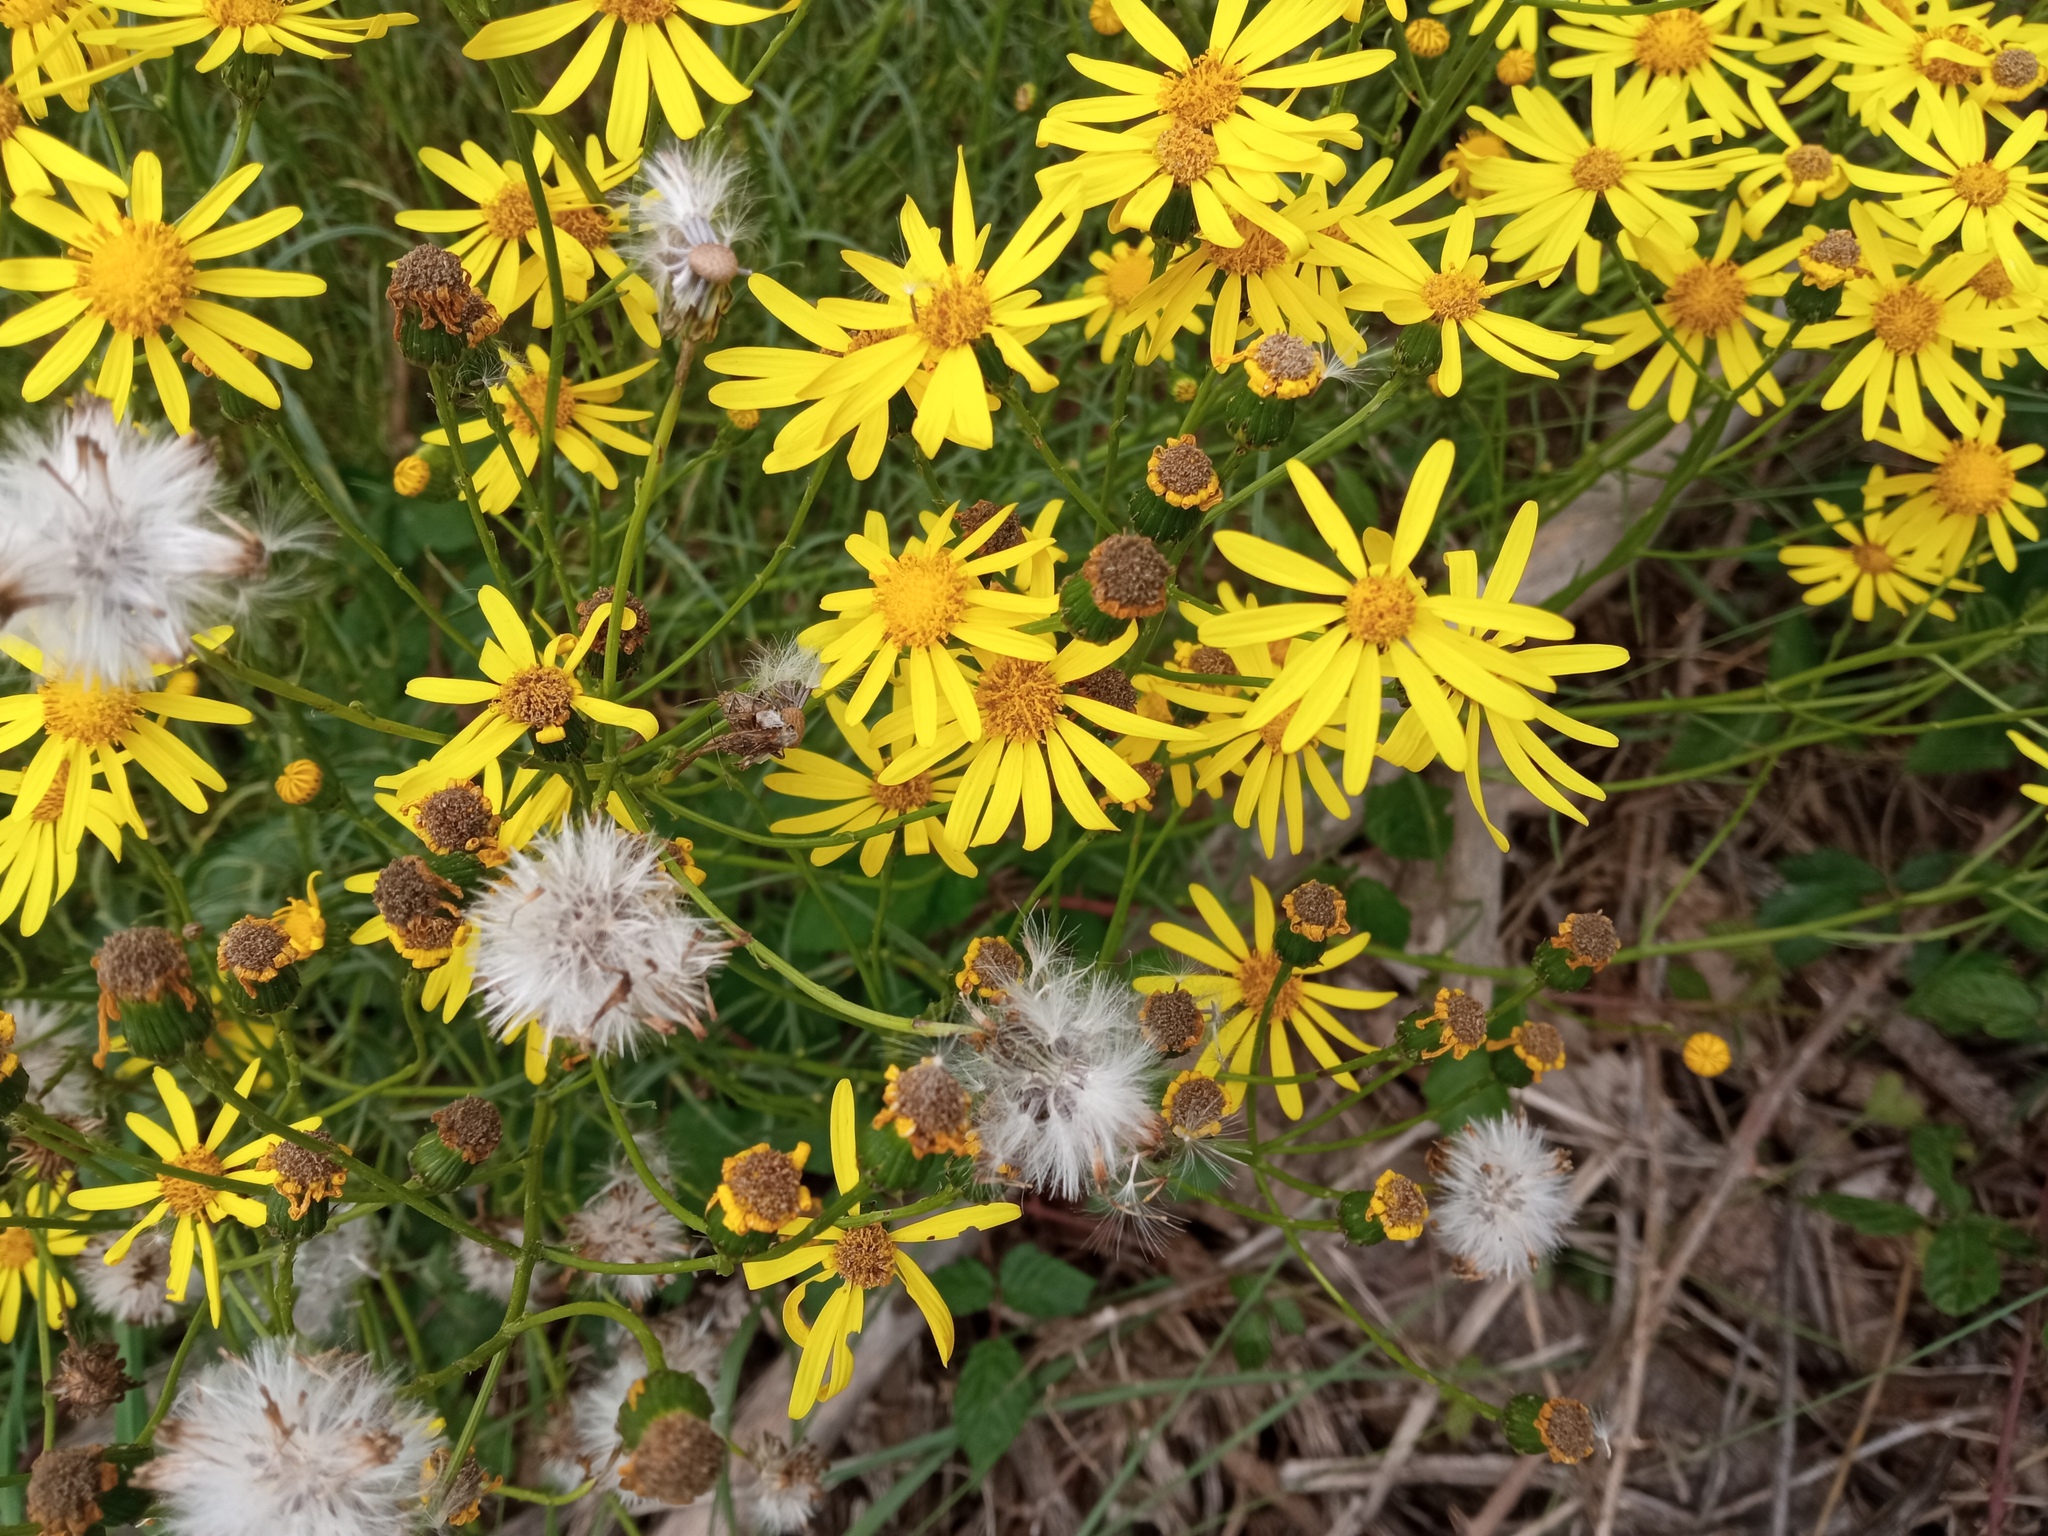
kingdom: Plantae
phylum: Tracheophyta
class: Magnoliopsida
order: Asterales
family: Asteraceae
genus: Senecio
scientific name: Senecio inaequidens
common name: Narrow-leaved ragwort
